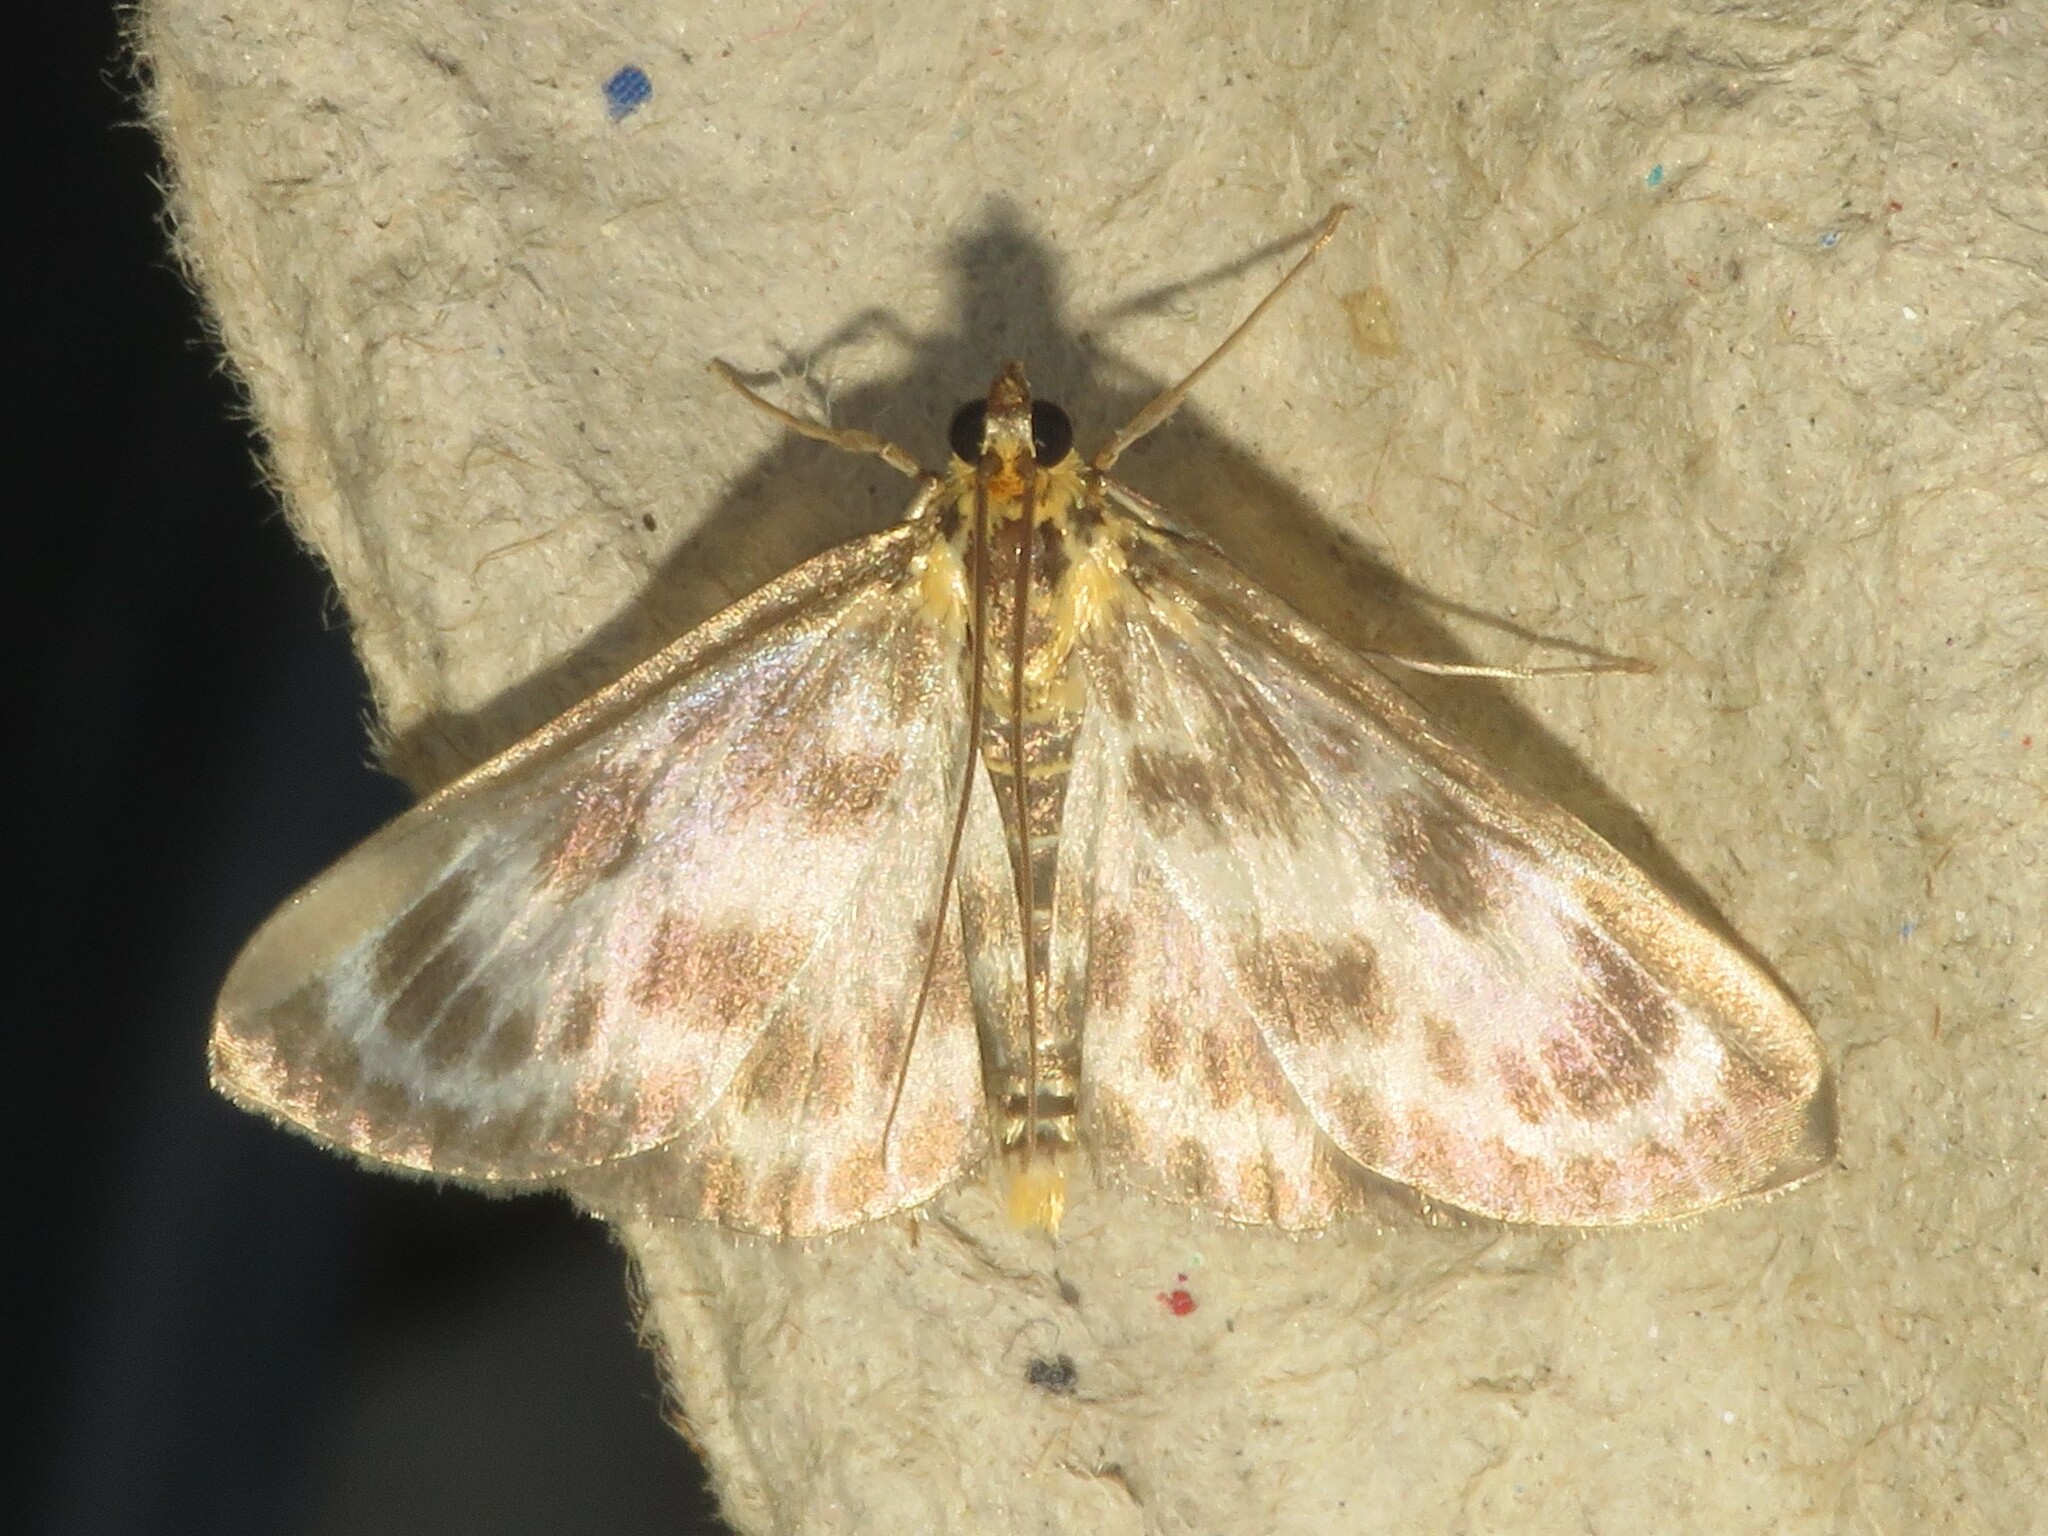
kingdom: Animalia
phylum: Arthropoda
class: Insecta
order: Lepidoptera
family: Crambidae
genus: Anania
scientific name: Anania hortulata
